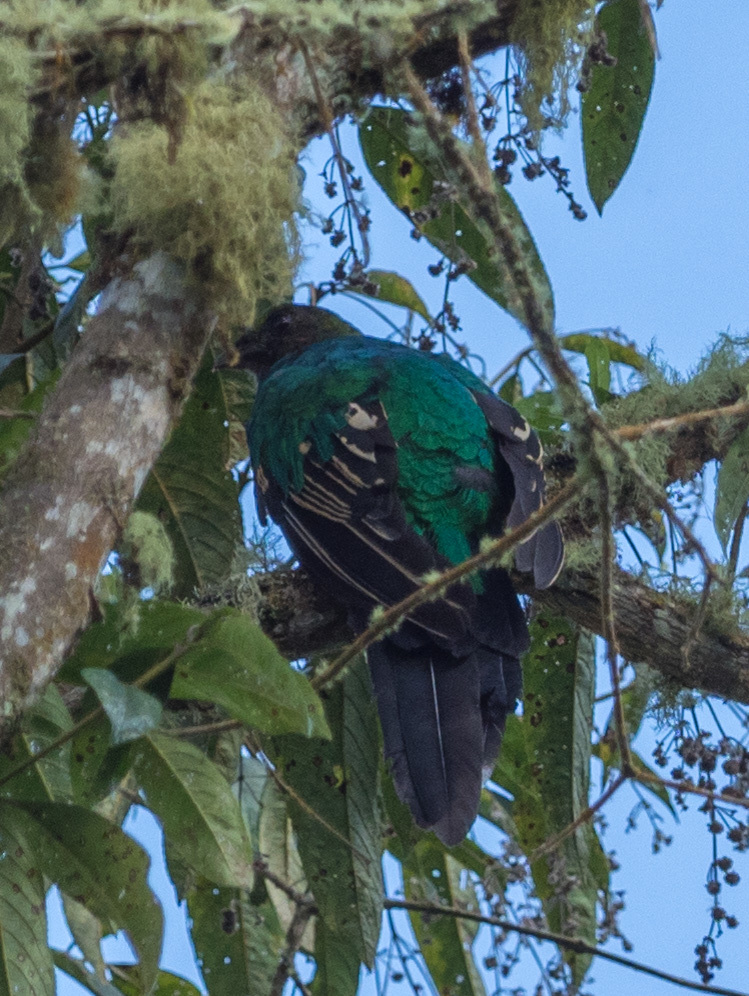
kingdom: Animalia
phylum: Chordata
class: Aves
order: Trogoniformes
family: Trogonidae
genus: Pharomachrus
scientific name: Pharomachrus auriceps
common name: Golden-headed quetzal
